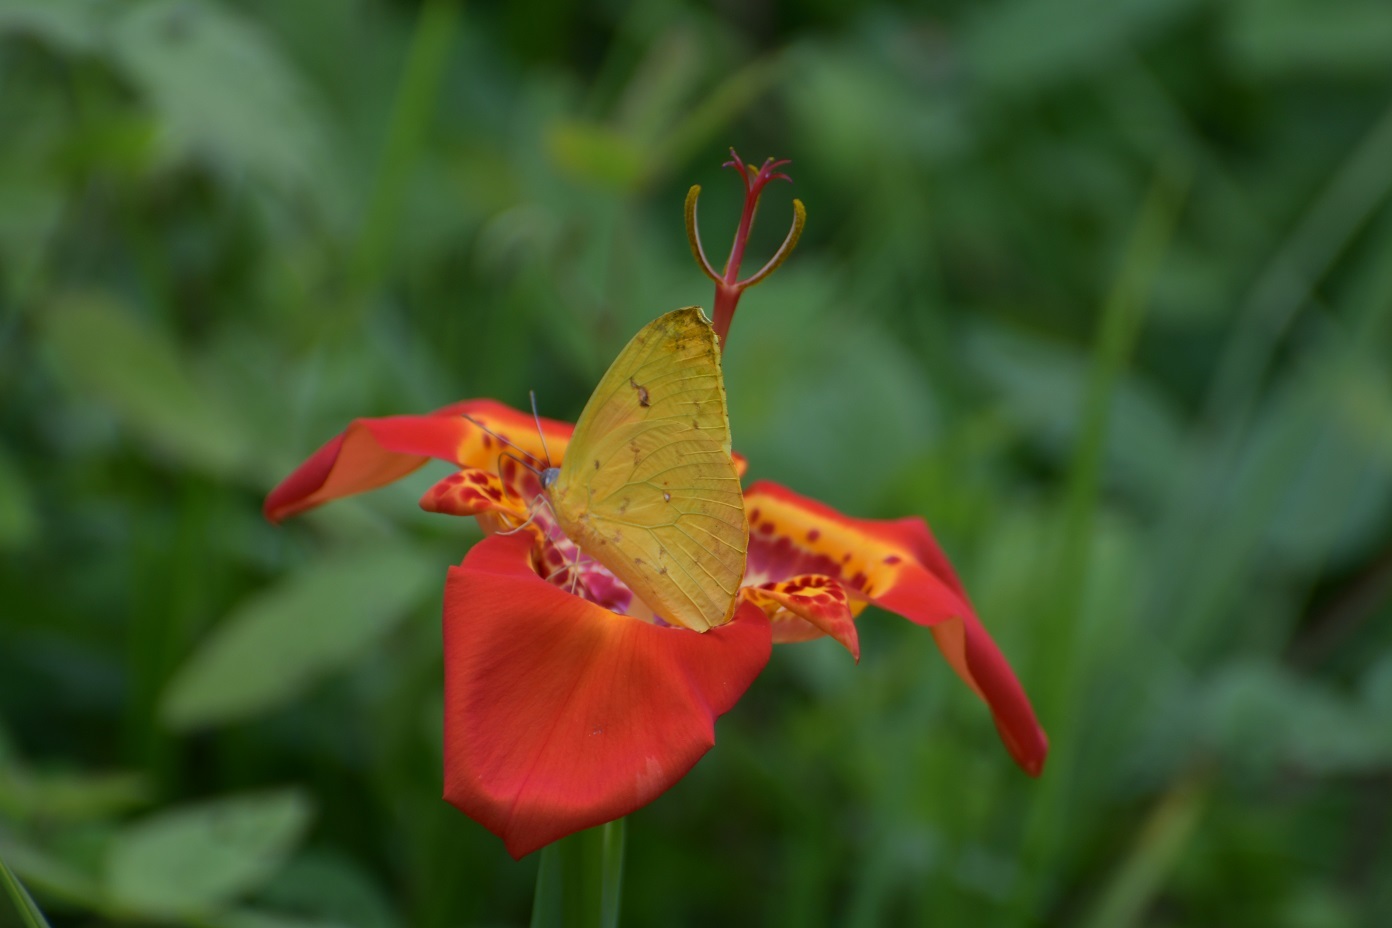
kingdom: Animalia
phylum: Arthropoda
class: Insecta
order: Lepidoptera
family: Pieridae
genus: Phoebis
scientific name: Phoebis philea
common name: Orange-barred giant sulphur
